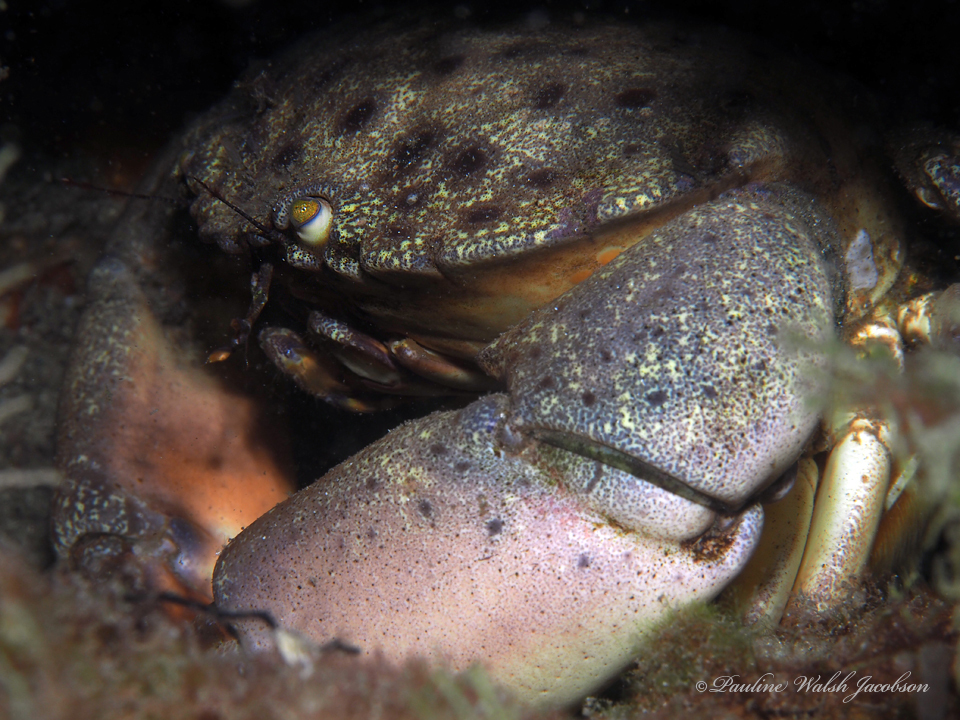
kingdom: Animalia
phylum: Arthropoda
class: Malacostraca
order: Decapoda
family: Menippidae
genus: Menippe
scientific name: Menippe mercenaria
